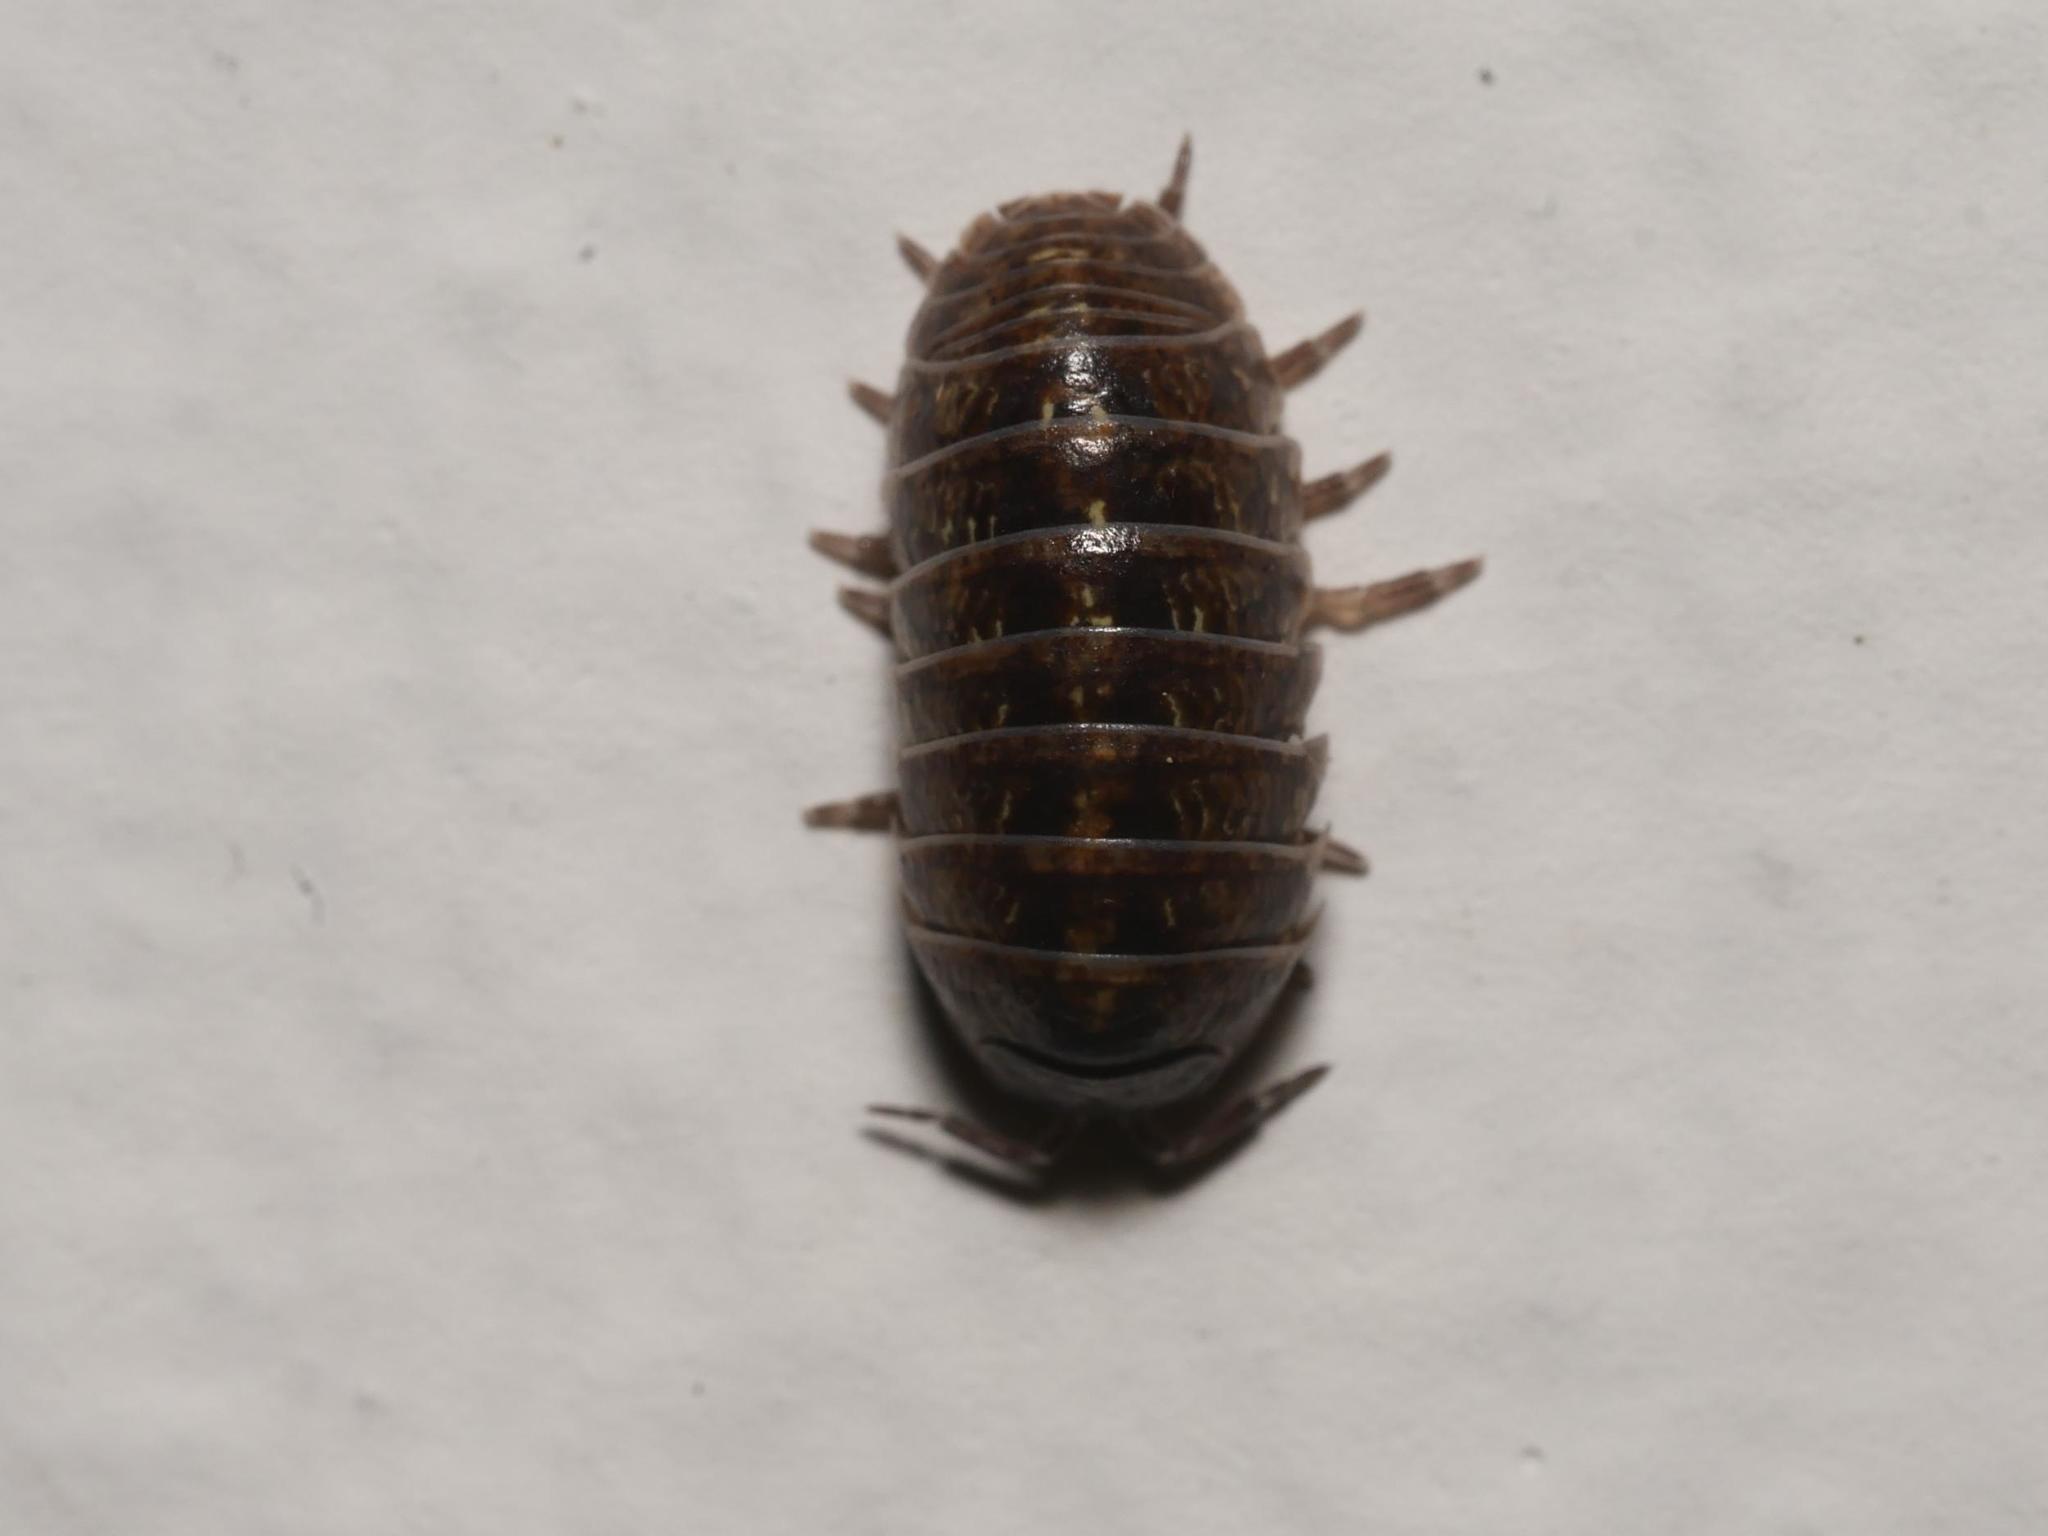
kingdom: Animalia
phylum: Arthropoda
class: Malacostraca
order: Isopoda
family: Armadillidiidae
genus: Armadillidium
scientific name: Armadillidium vulgare
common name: Common pill woodlouse
